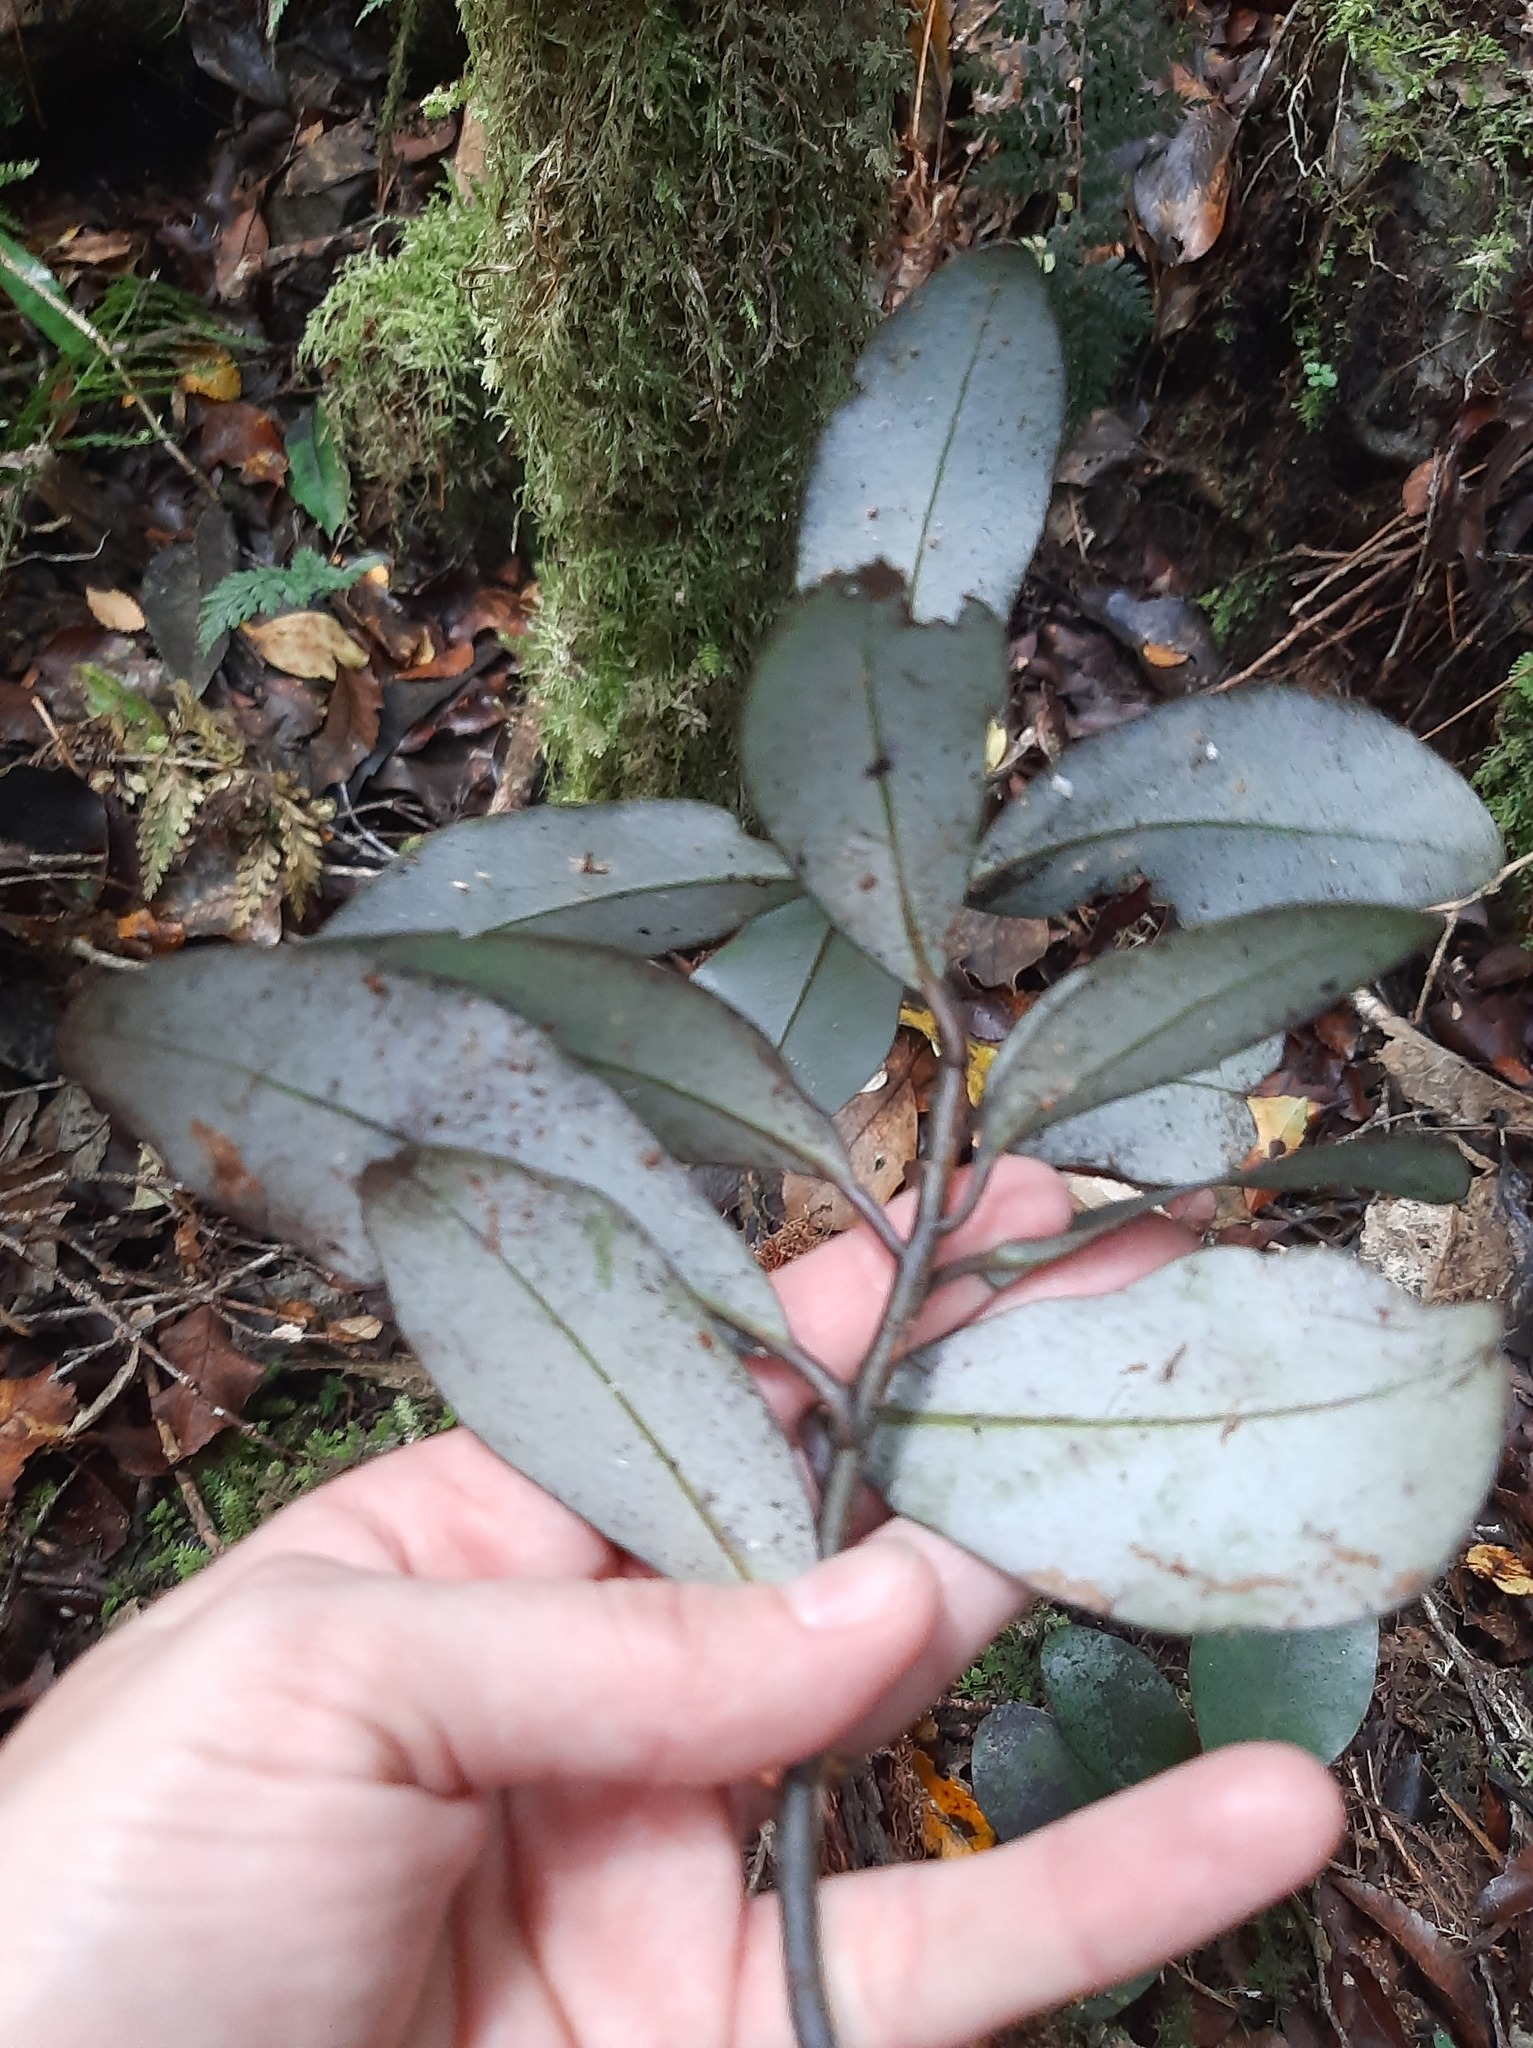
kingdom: Plantae
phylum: Tracheophyta
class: Magnoliopsida
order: Canellales
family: Winteraceae
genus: Pseudowintera
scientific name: Pseudowintera colorata
